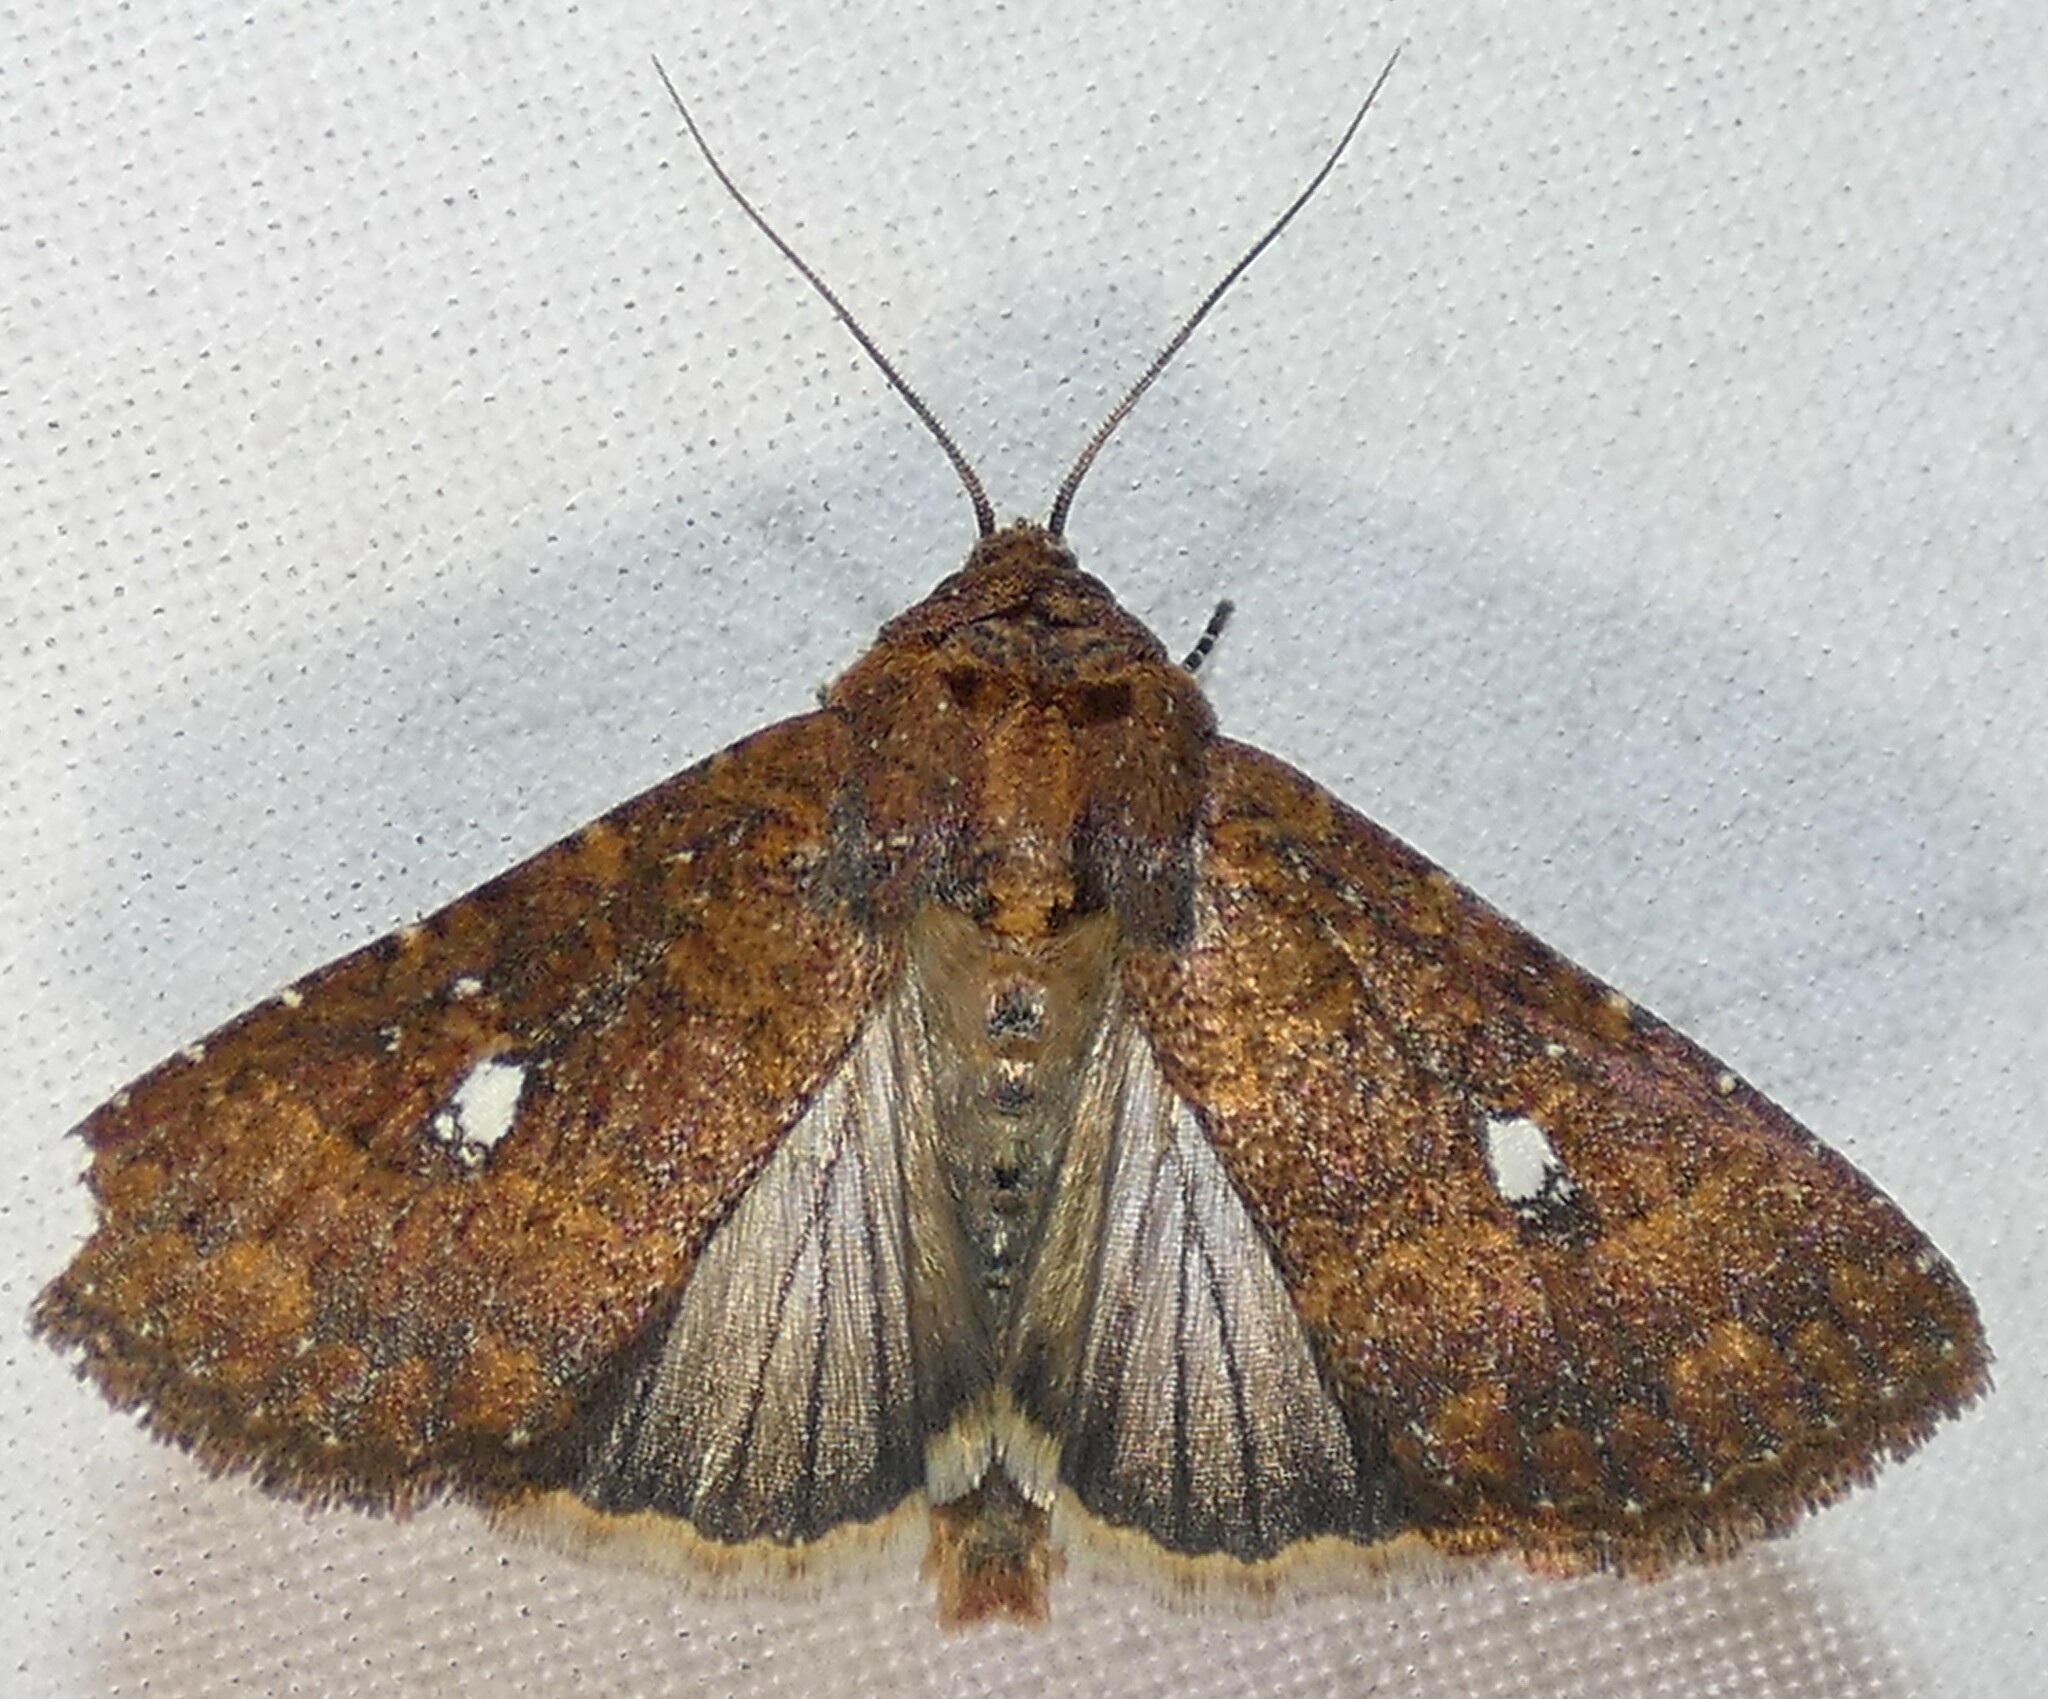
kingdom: Animalia
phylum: Arthropoda
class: Insecta
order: Lepidoptera
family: Noctuidae
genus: Condica
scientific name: Condica mobilis
